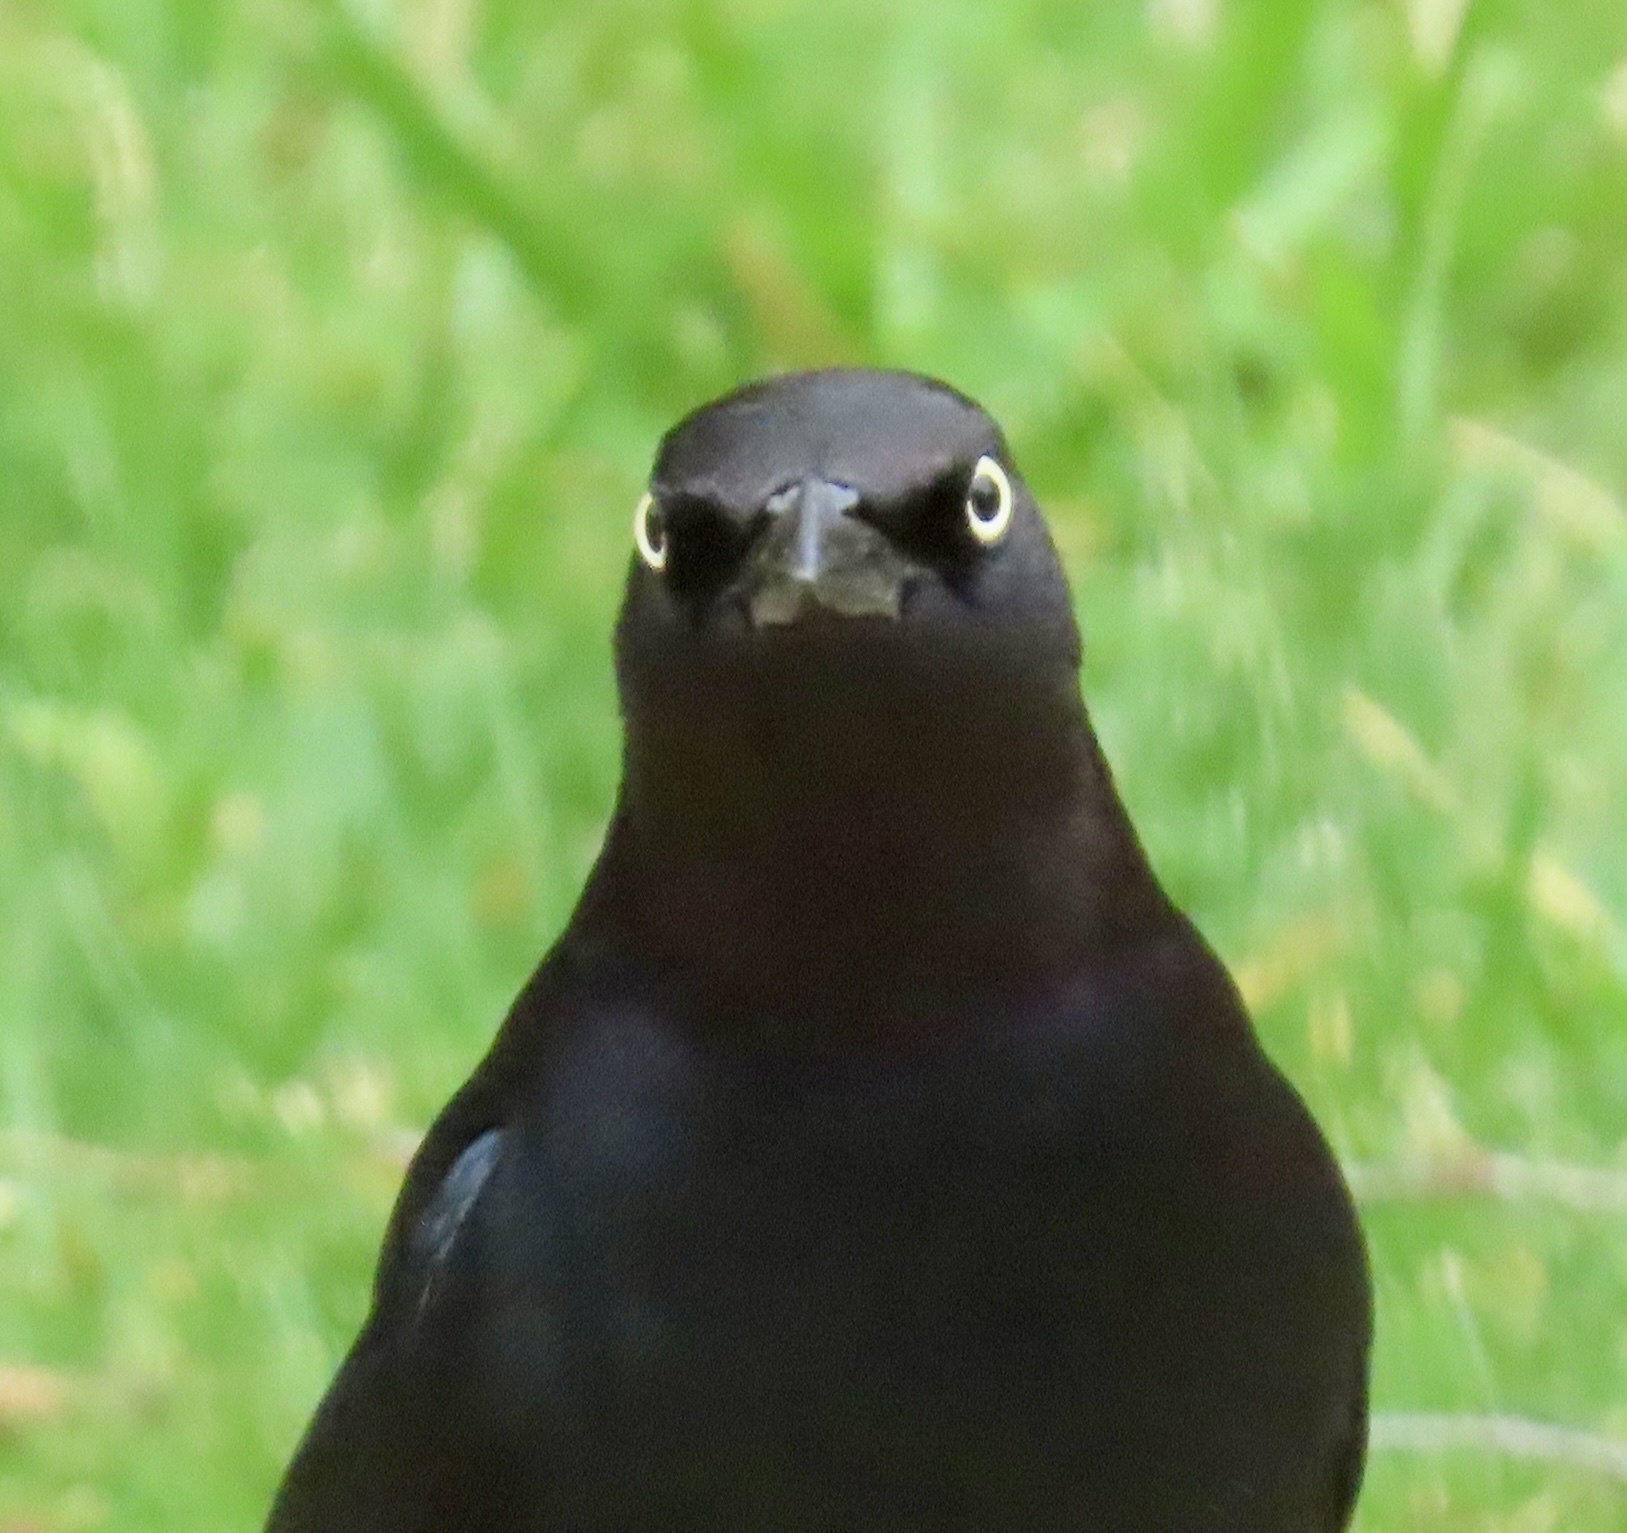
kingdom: Animalia
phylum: Chordata
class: Aves
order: Passeriformes
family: Icteridae
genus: Euphagus
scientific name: Euphagus cyanocephalus
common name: Brewer's blackbird
